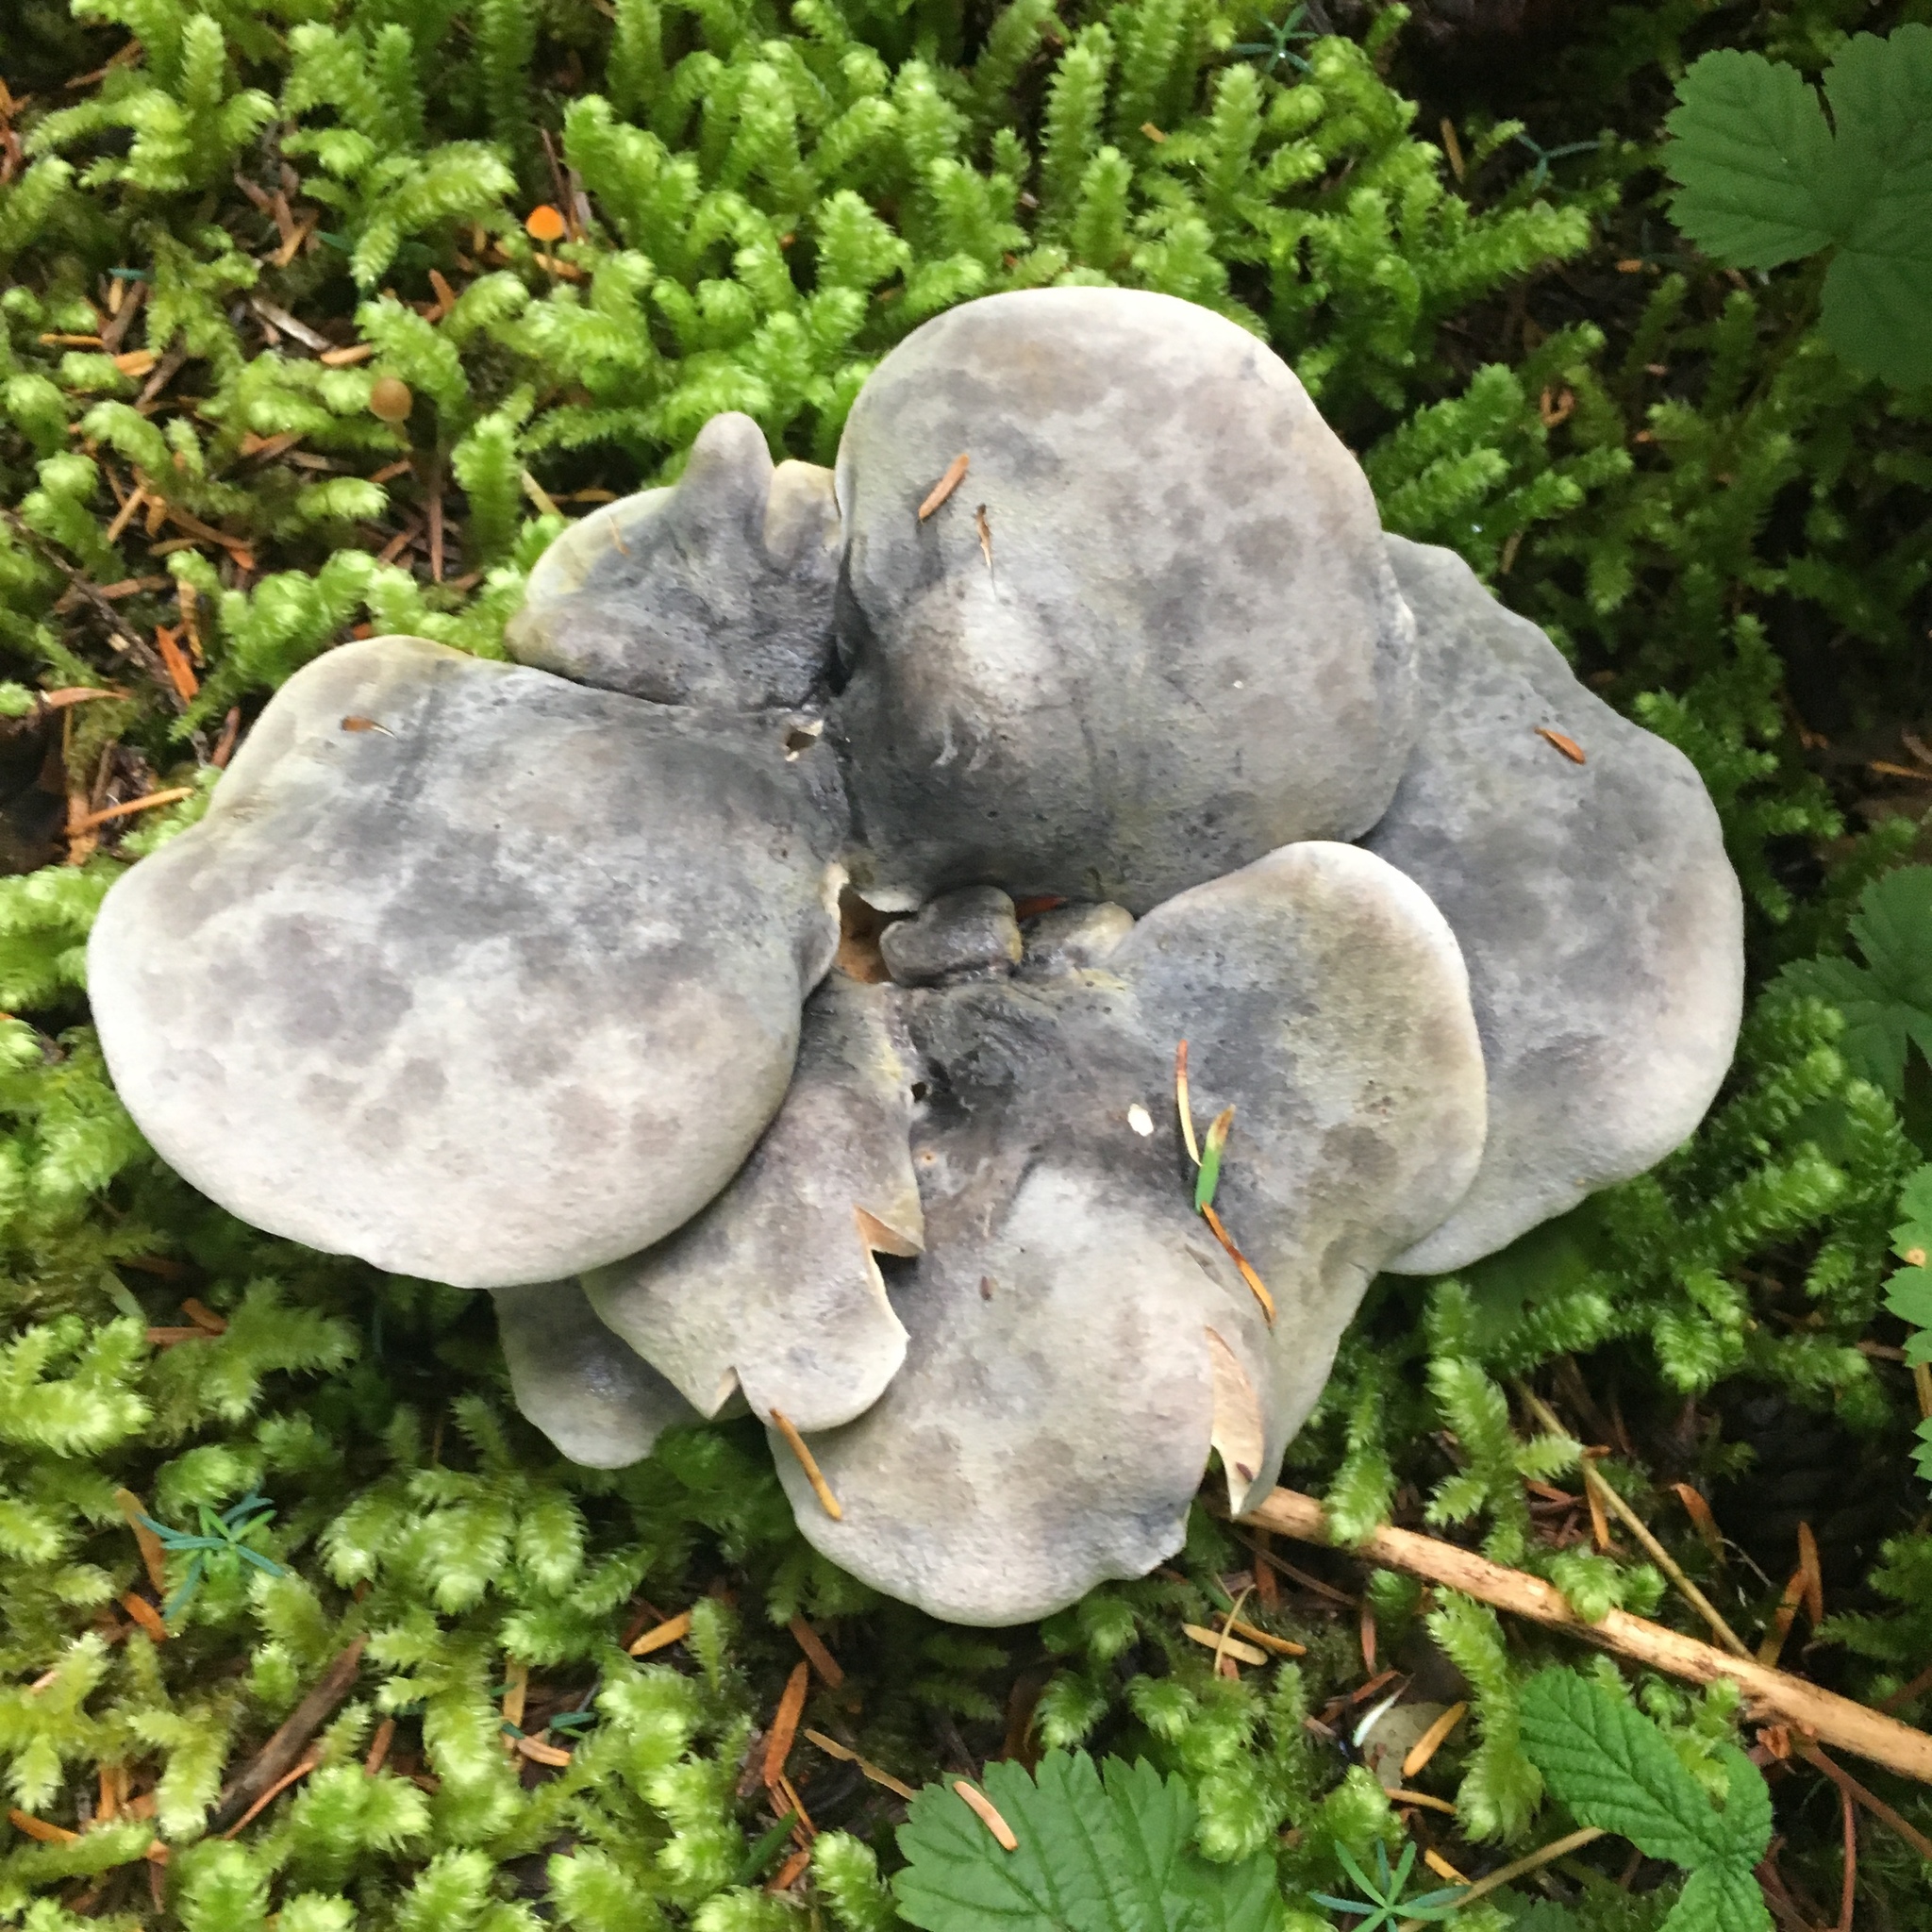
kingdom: Fungi
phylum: Basidiomycota
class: Agaricomycetes
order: Russulales
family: Albatrellaceae
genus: Albatrellopsis
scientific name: Albatrellopsis flettii
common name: Blue polypore
